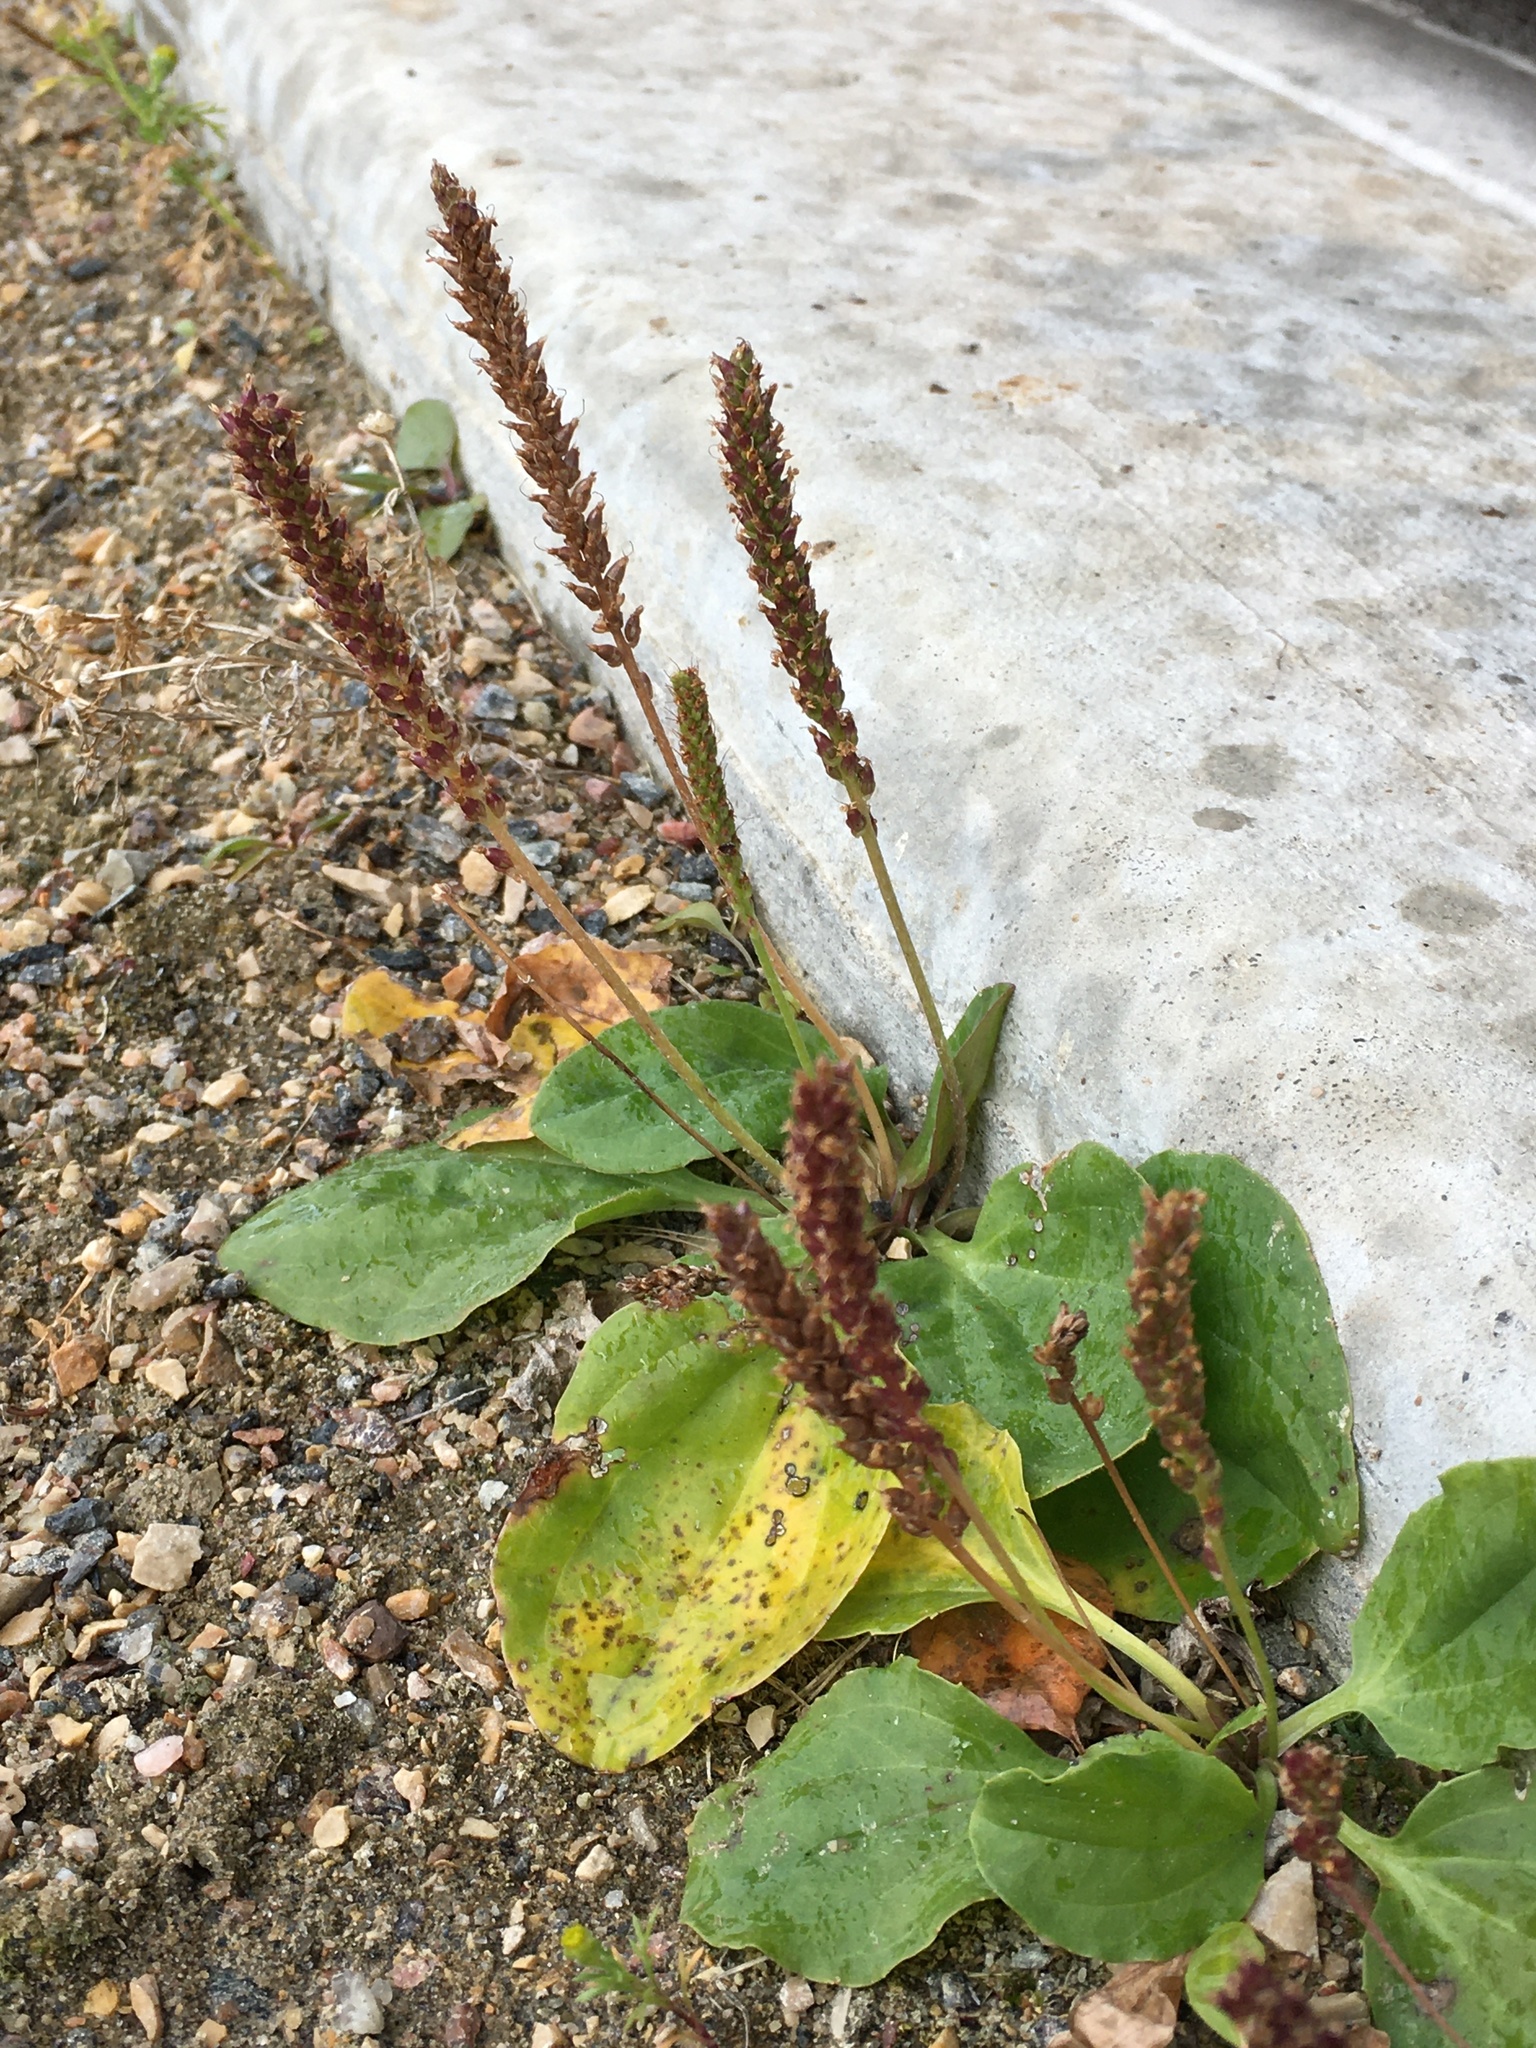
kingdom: Plantae
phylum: Tracheophyta
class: Magnoliopsida
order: Lamiales
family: Plantaginaceae
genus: Plantago
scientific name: Plantago major
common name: Common plantain
